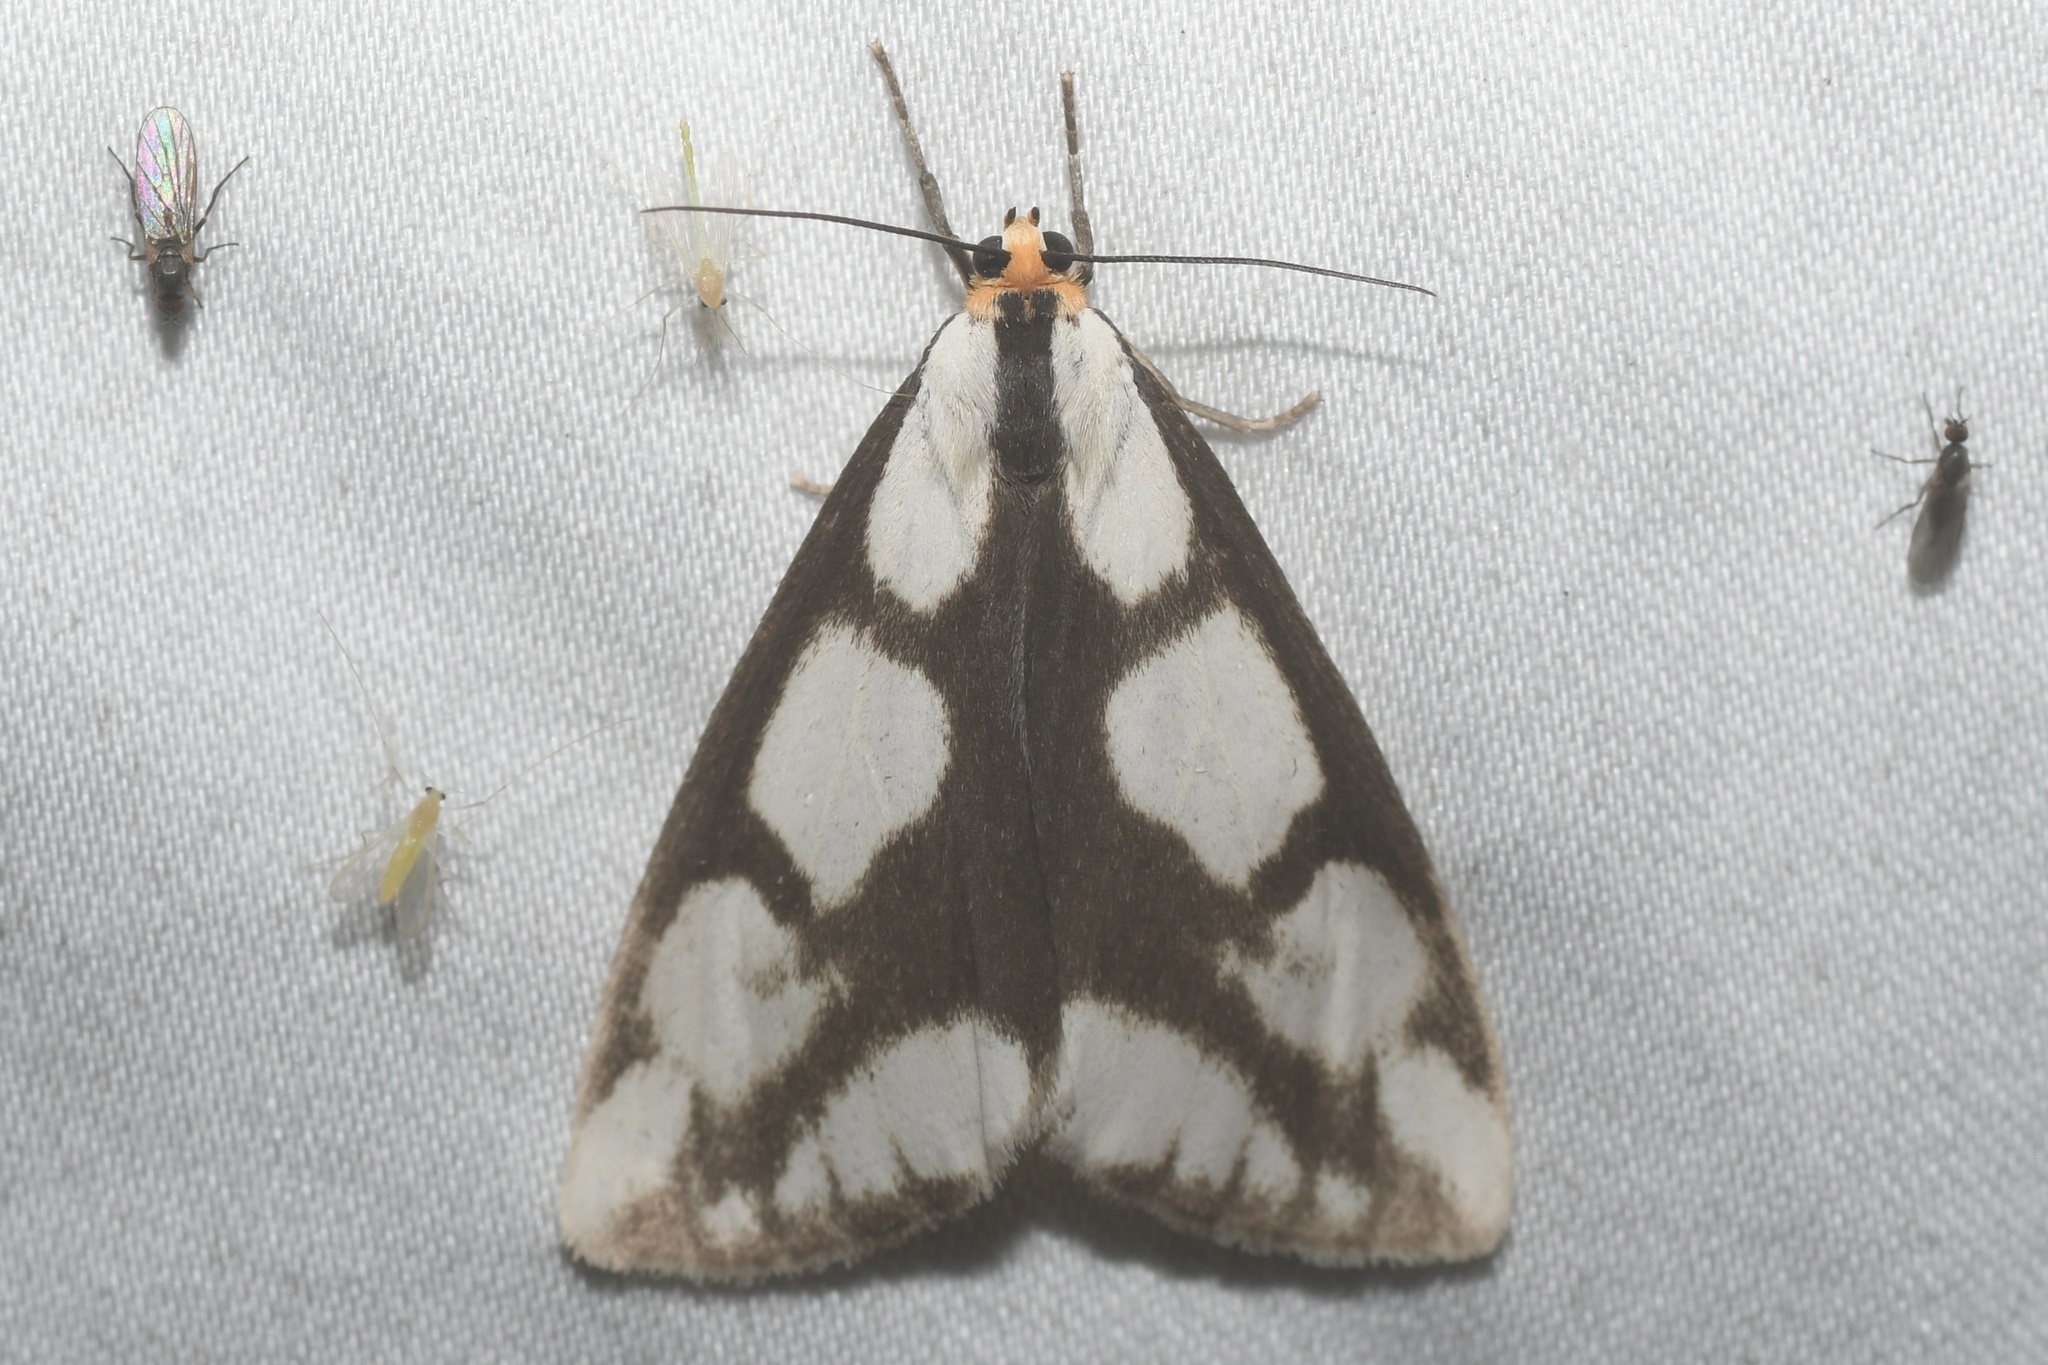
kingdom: Animalia
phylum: Arthropoda
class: Insecta
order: Lepidoptera
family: Erebidae
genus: Haploa
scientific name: Haploa lecontei
